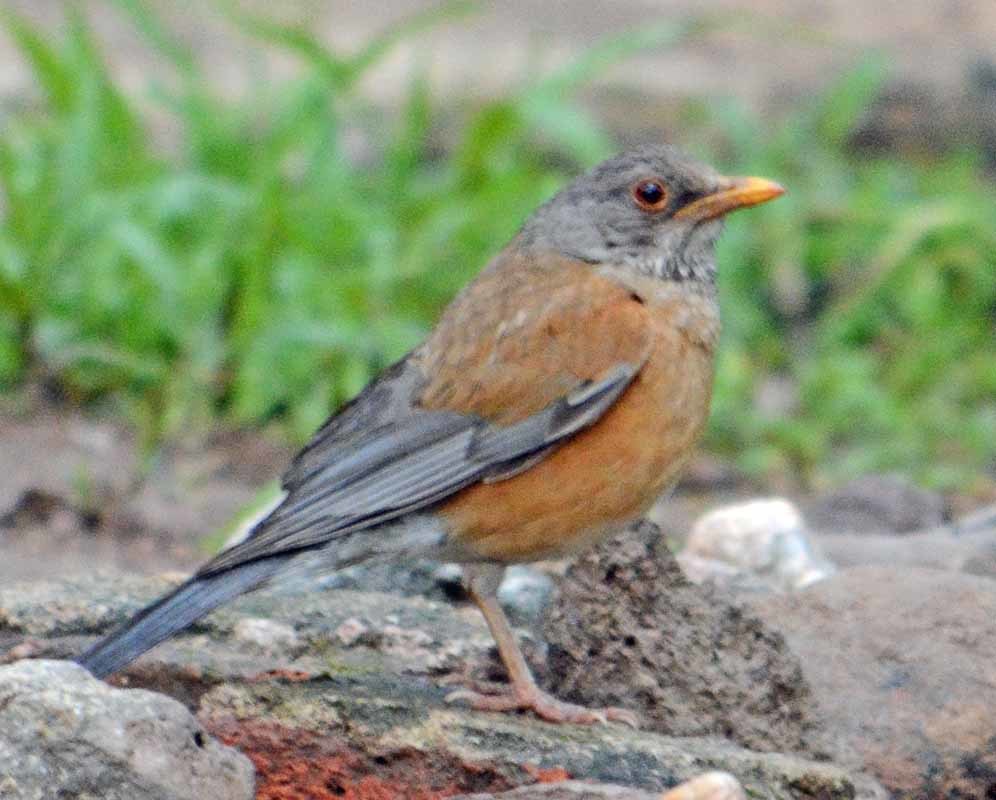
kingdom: Animalia
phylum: Chordata
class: Aves
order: Passeriformes
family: Turdidae
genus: Turdus
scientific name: Turdus rufopalliatus
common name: Rufous-backed robin
